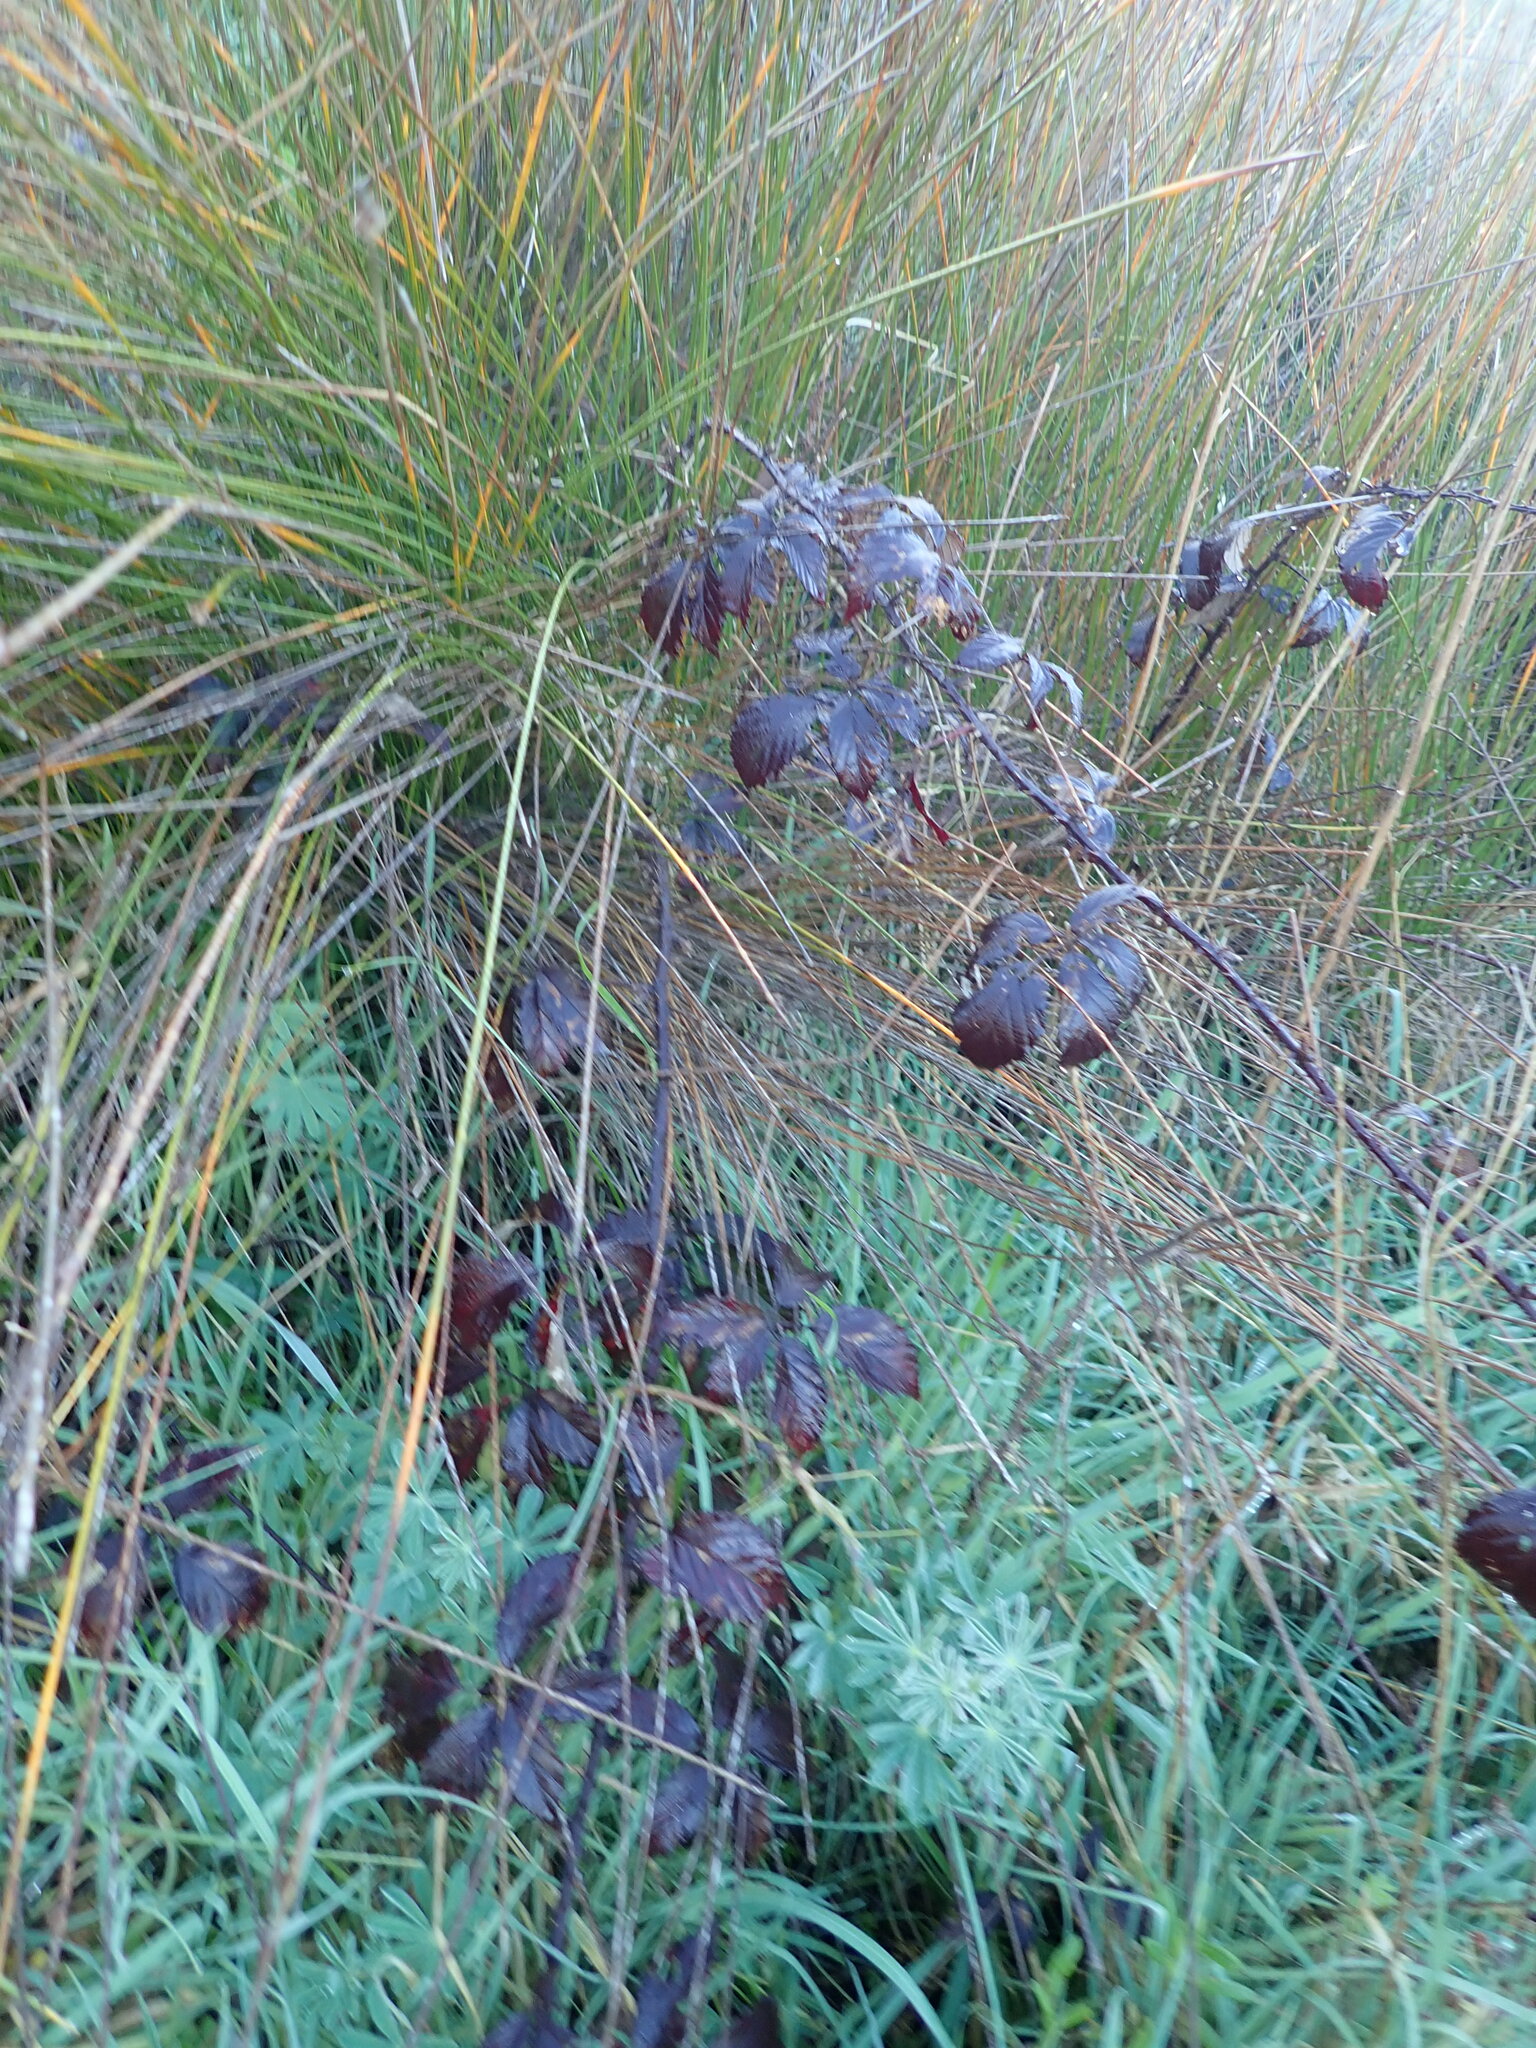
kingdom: Plantae
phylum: Tracheophyta
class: Magnoliopsida
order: Rosales
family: Rosaceae
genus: Rubus
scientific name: Rubus fruticosus
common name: Blackberry, bramble
